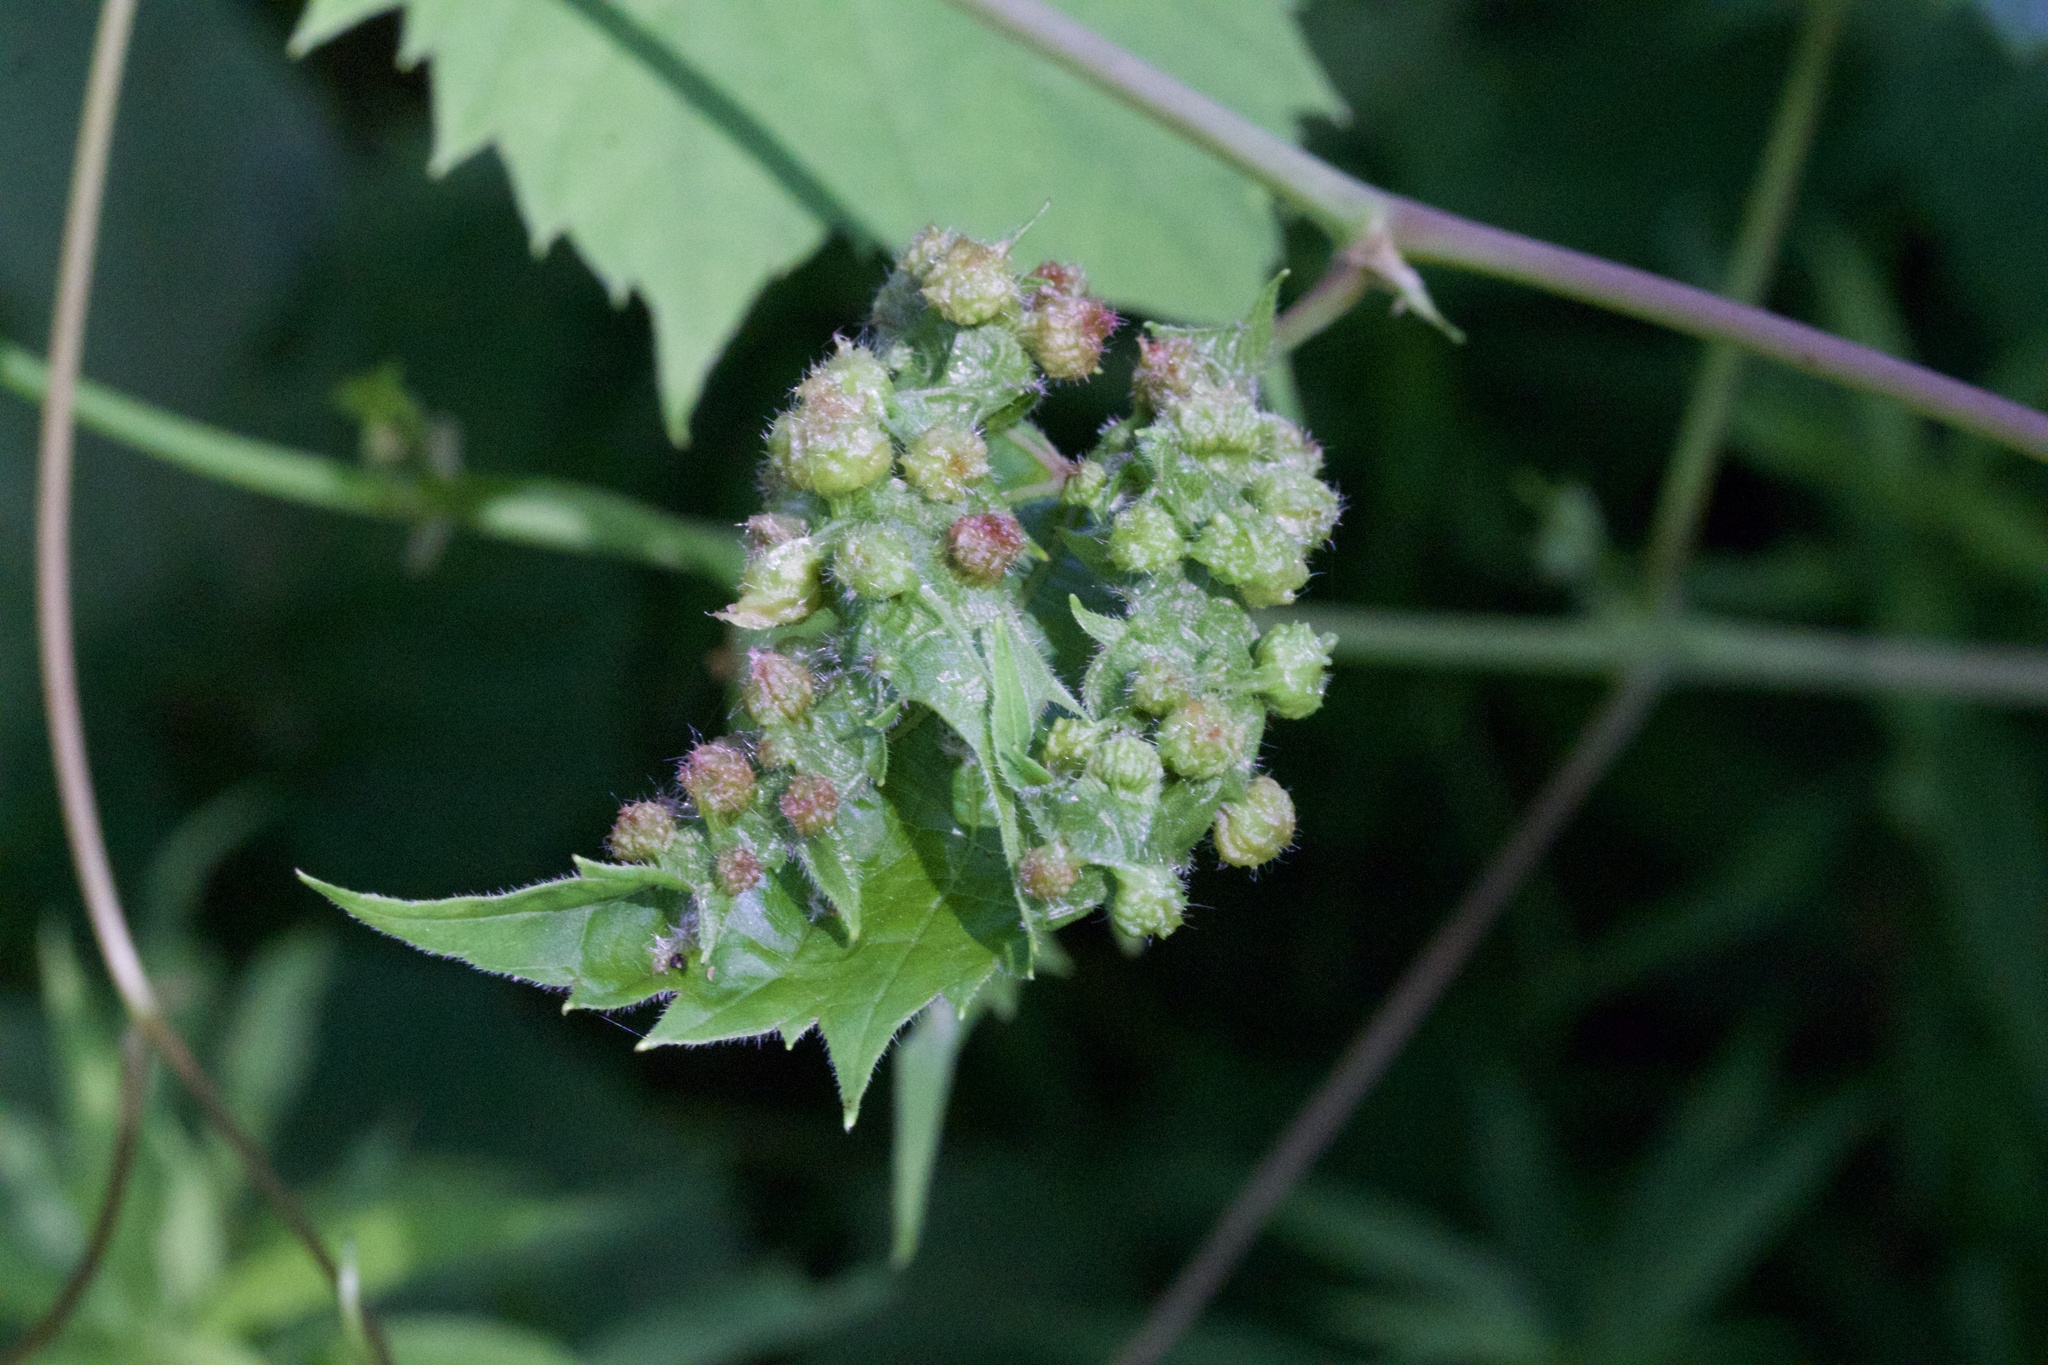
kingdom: Animalia
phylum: Arthropoda
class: Insecta
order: Hemiptera
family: Phylloxeridae
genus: Daktulosphaira
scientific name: Daktulosphaira vitifoliae
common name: Grape phylloxera
